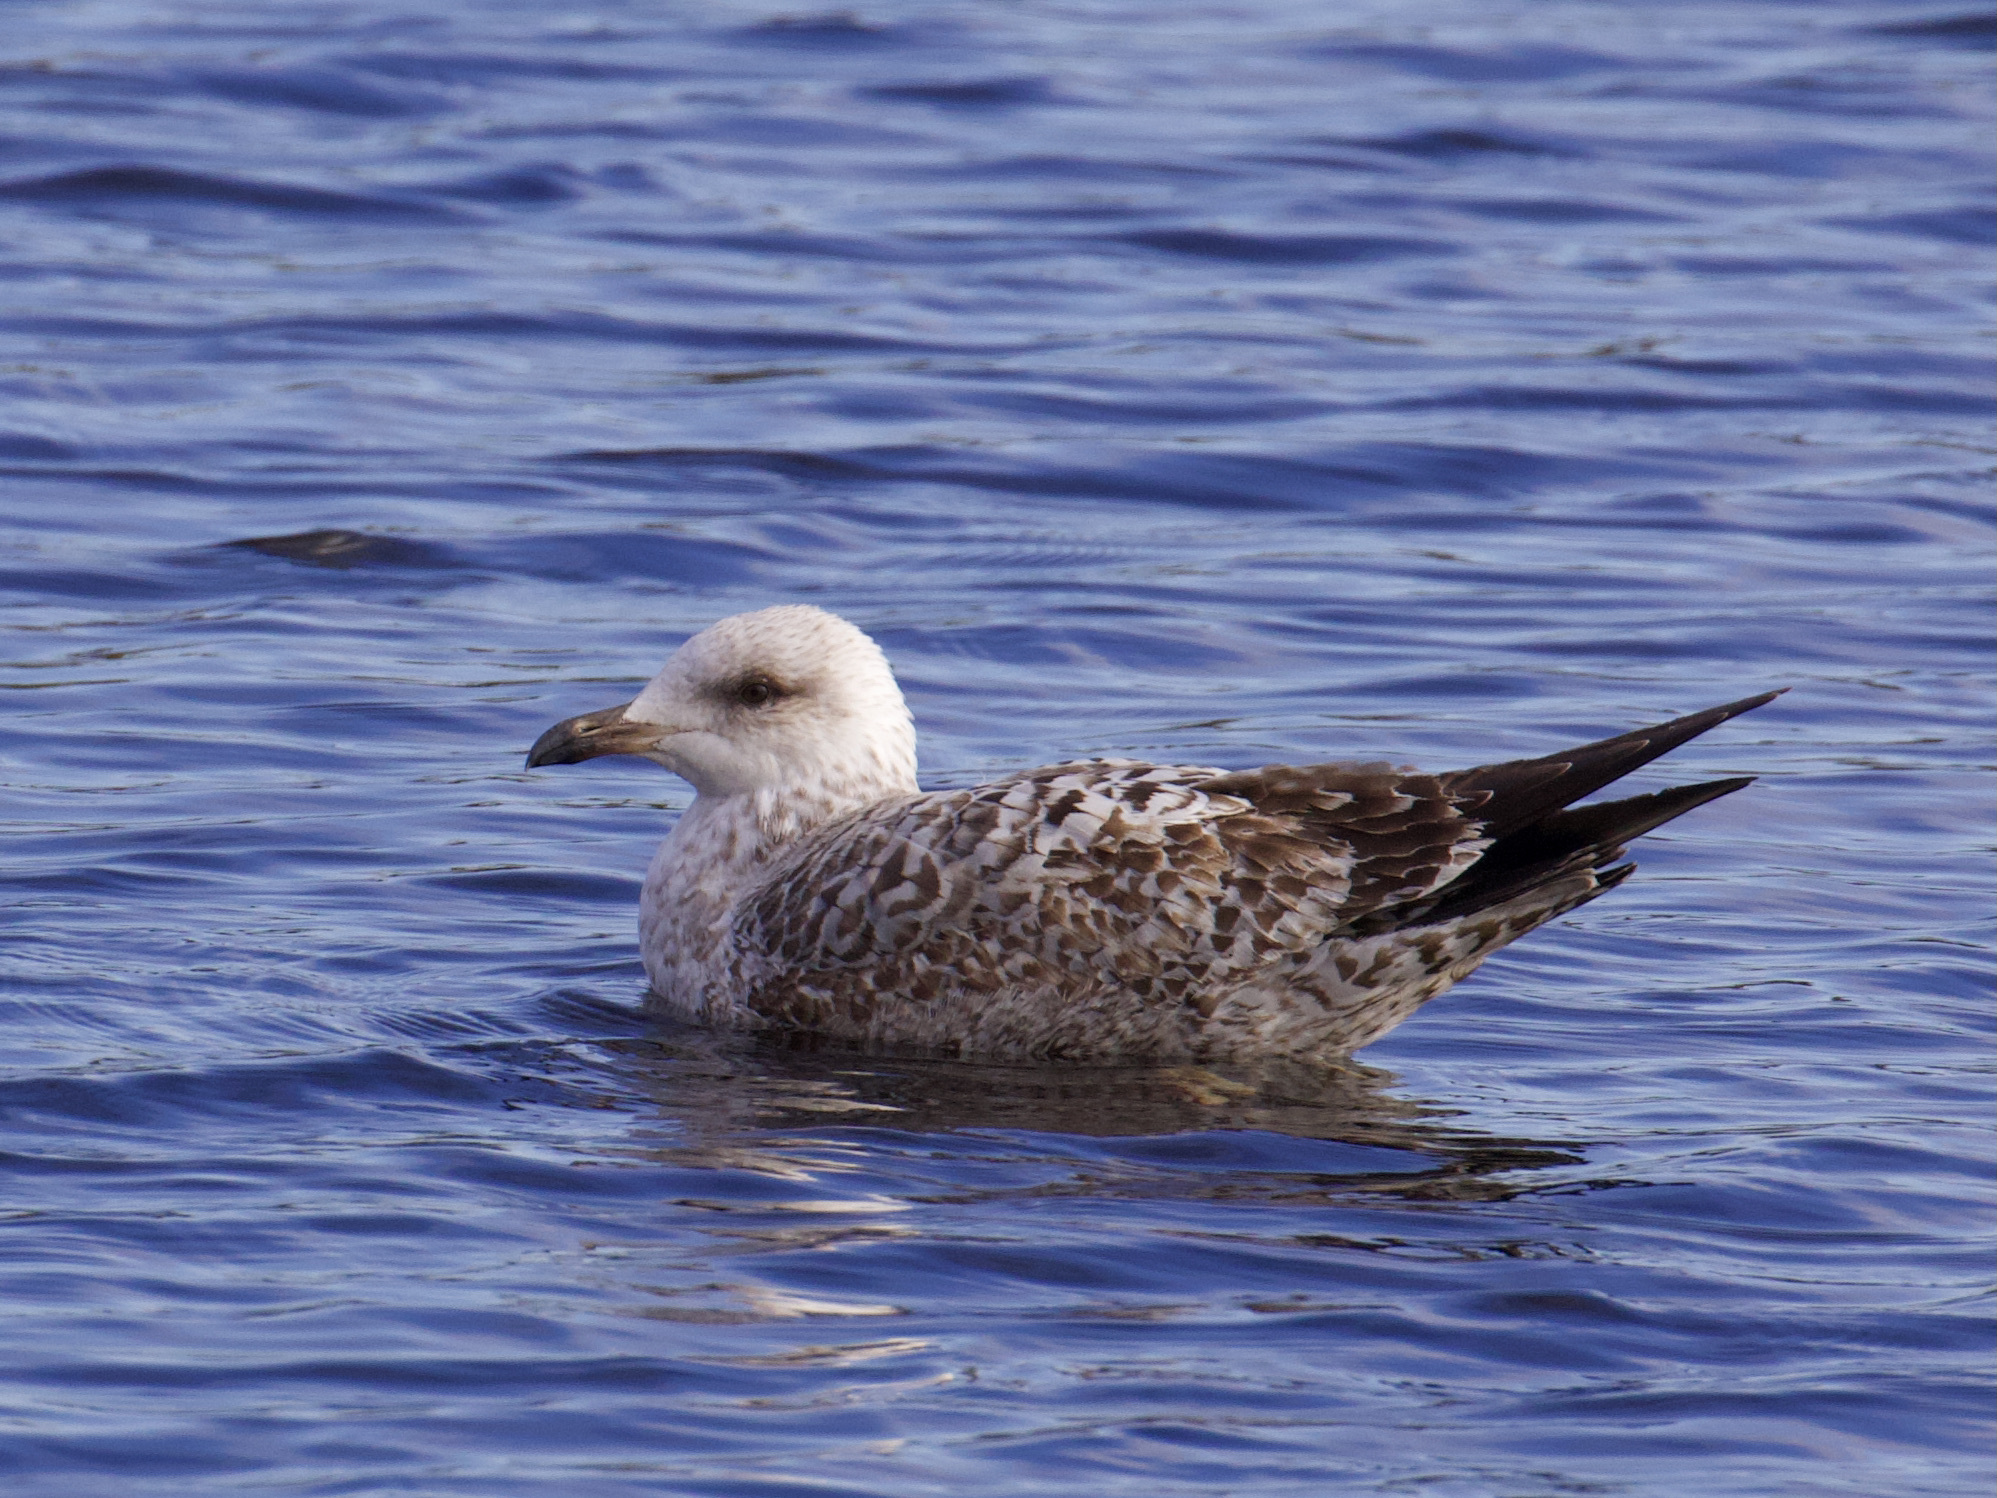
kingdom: Animalia
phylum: Chordata
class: Aves
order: Charadriiformes
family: Laridae
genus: Larus
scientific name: Larus argentatus
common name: Herring gull
